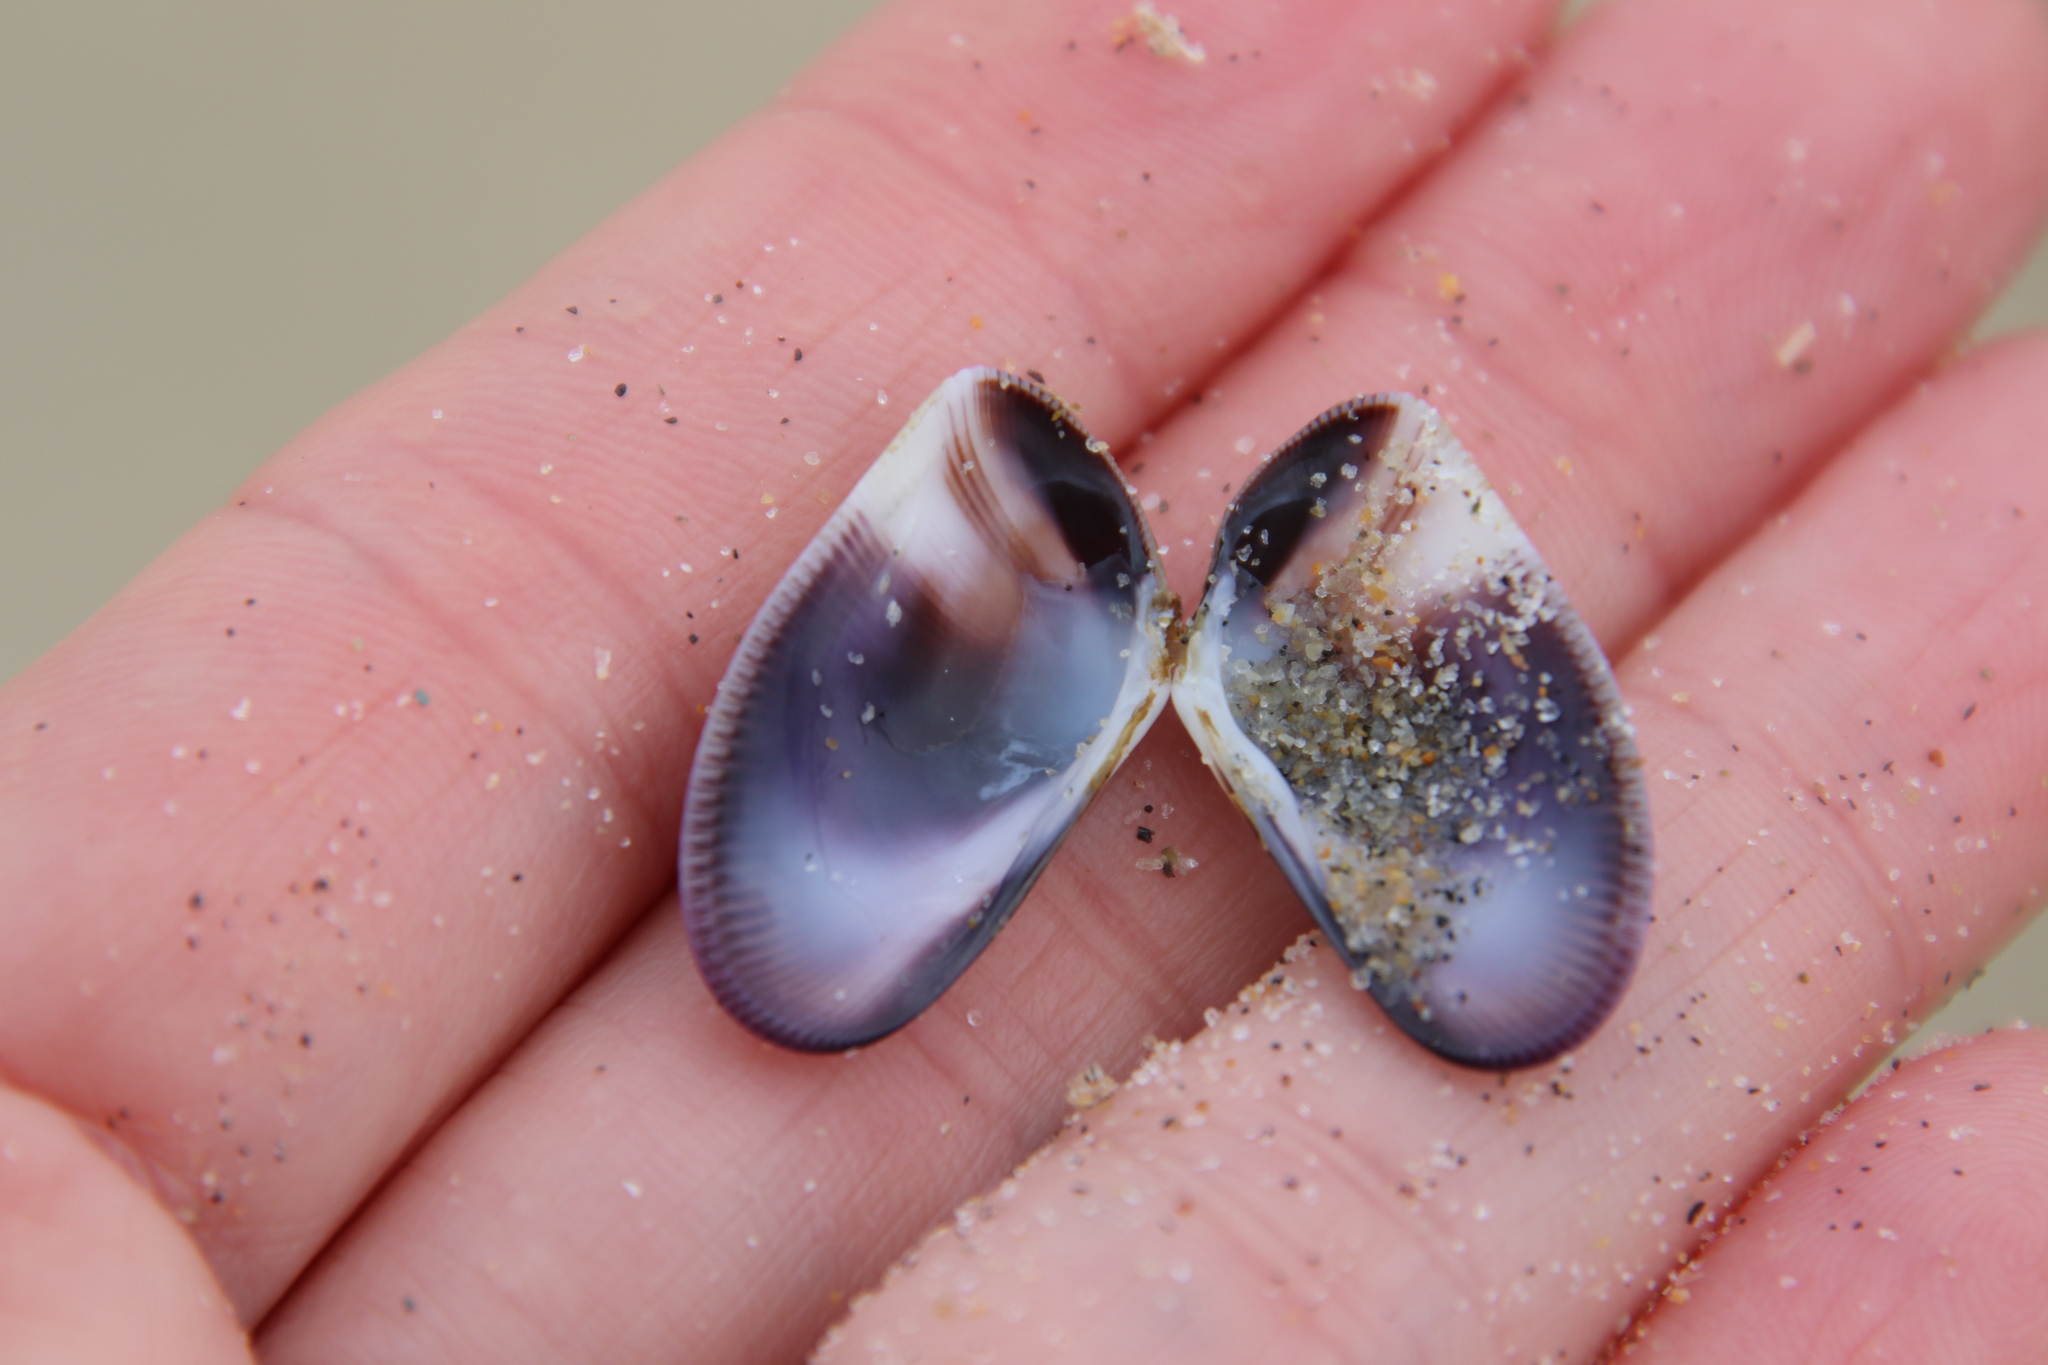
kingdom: Animalia
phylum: Mollusca
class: Bivalvia
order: Cardiida
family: Donacidae
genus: Donax
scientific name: Donax gouldii
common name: Gould beanclam
